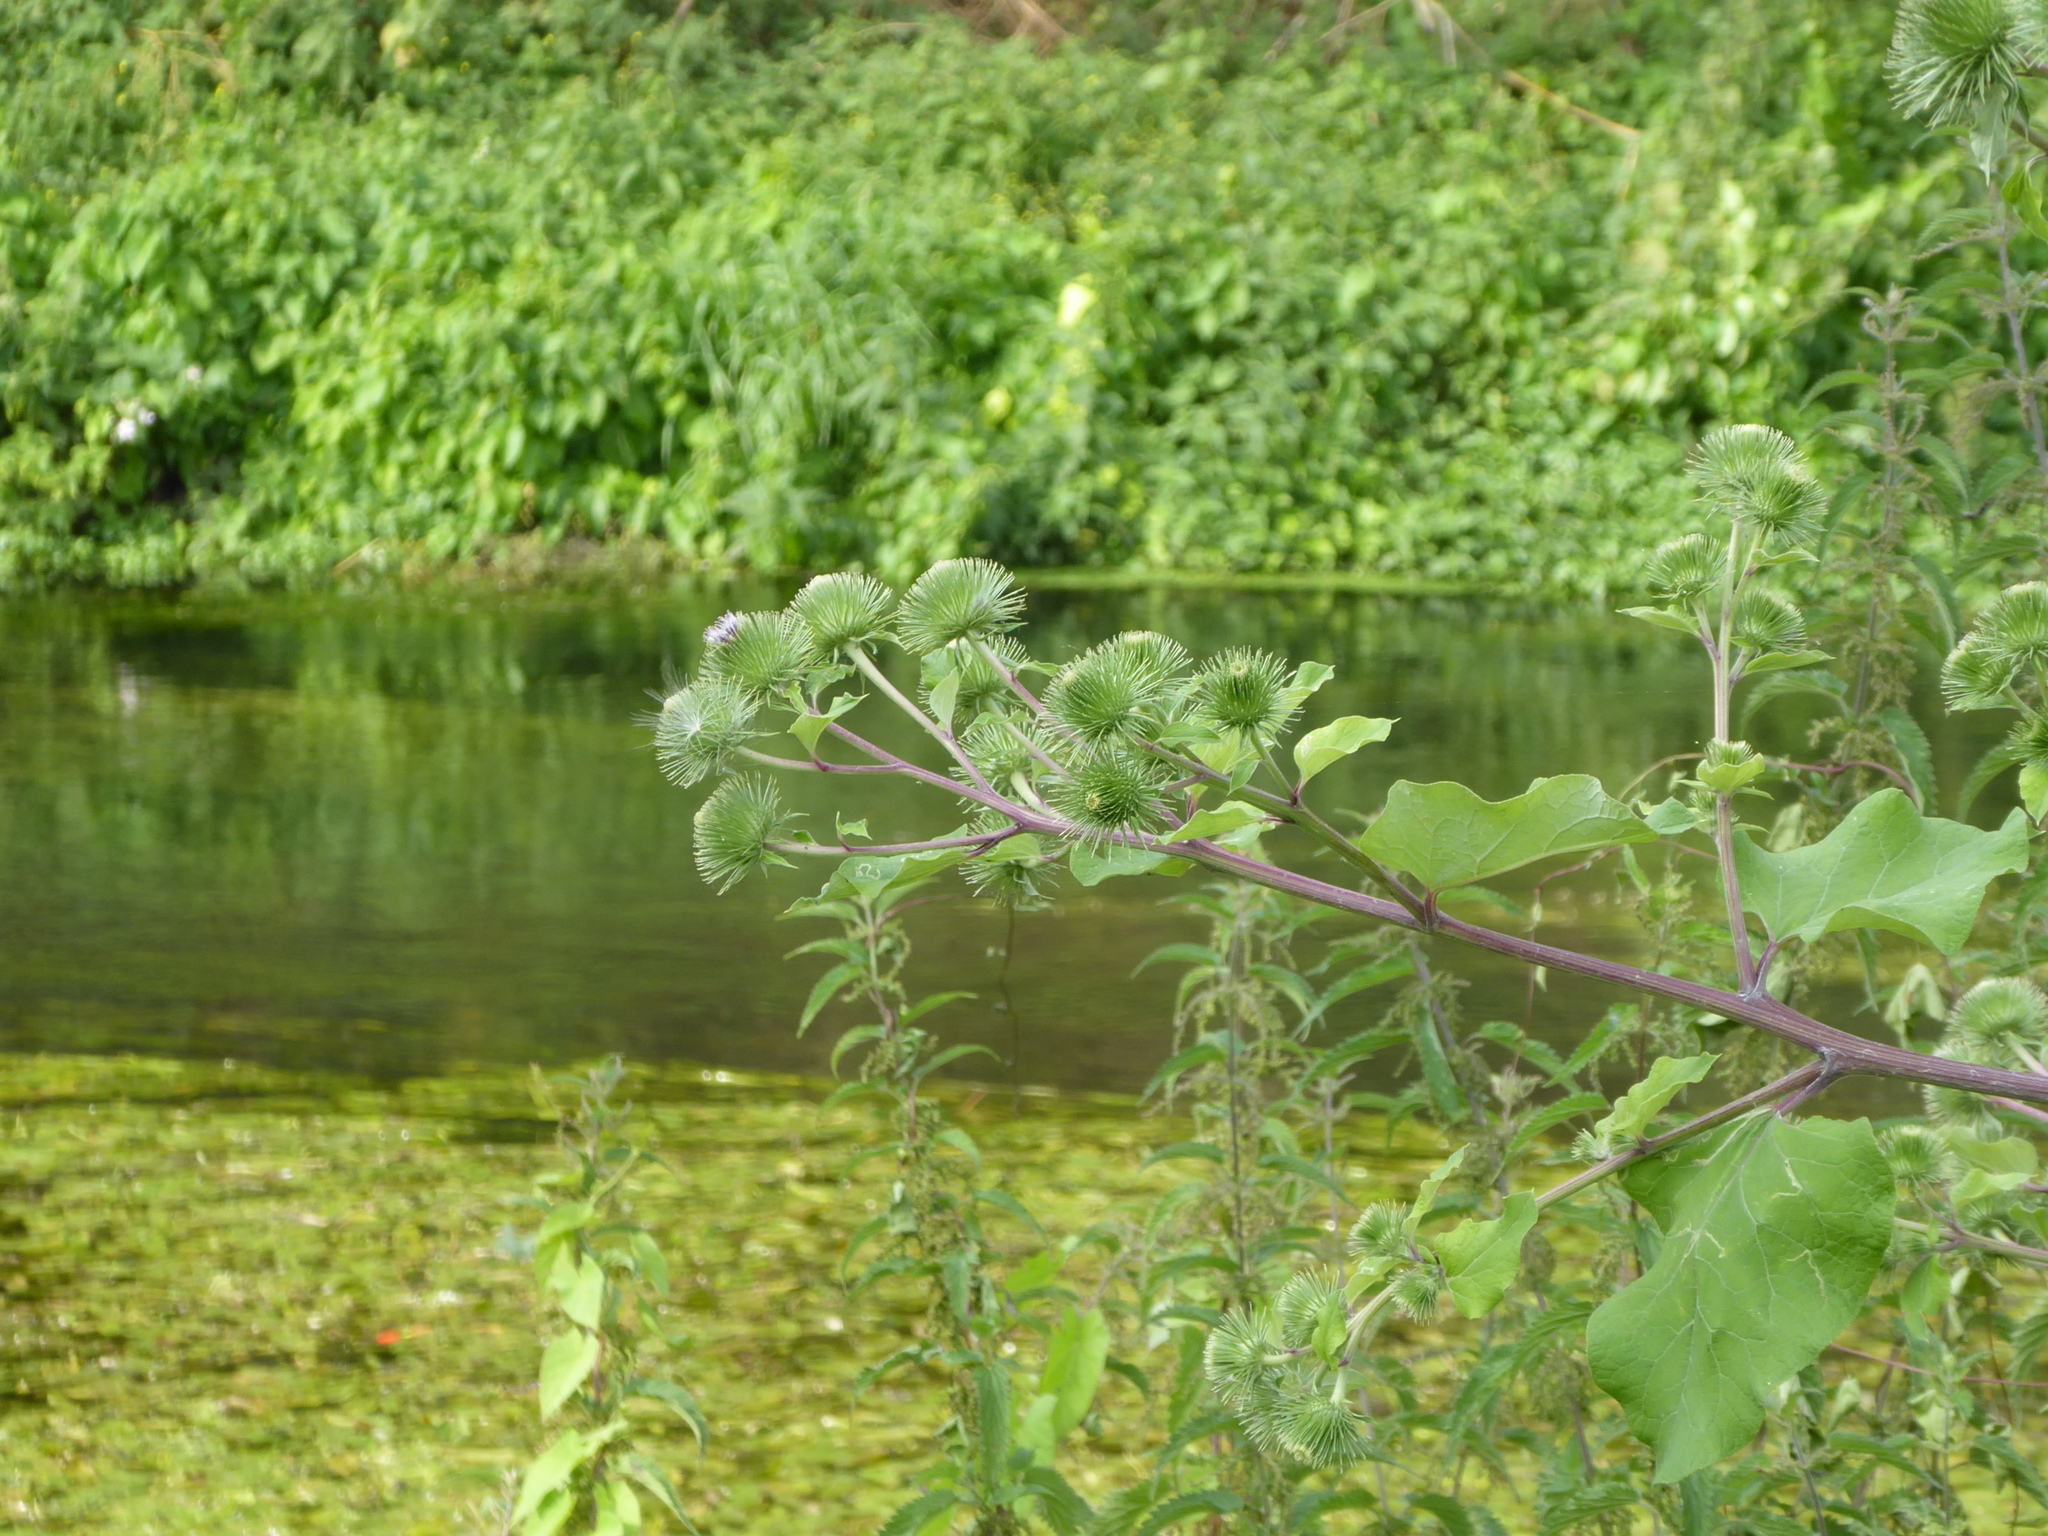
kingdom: Plantae
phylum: Tracheophyta
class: Magnoliopsida
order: Asterales
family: Asteraceae
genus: Arctium
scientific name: Arctium lappa
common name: Greater burdock
